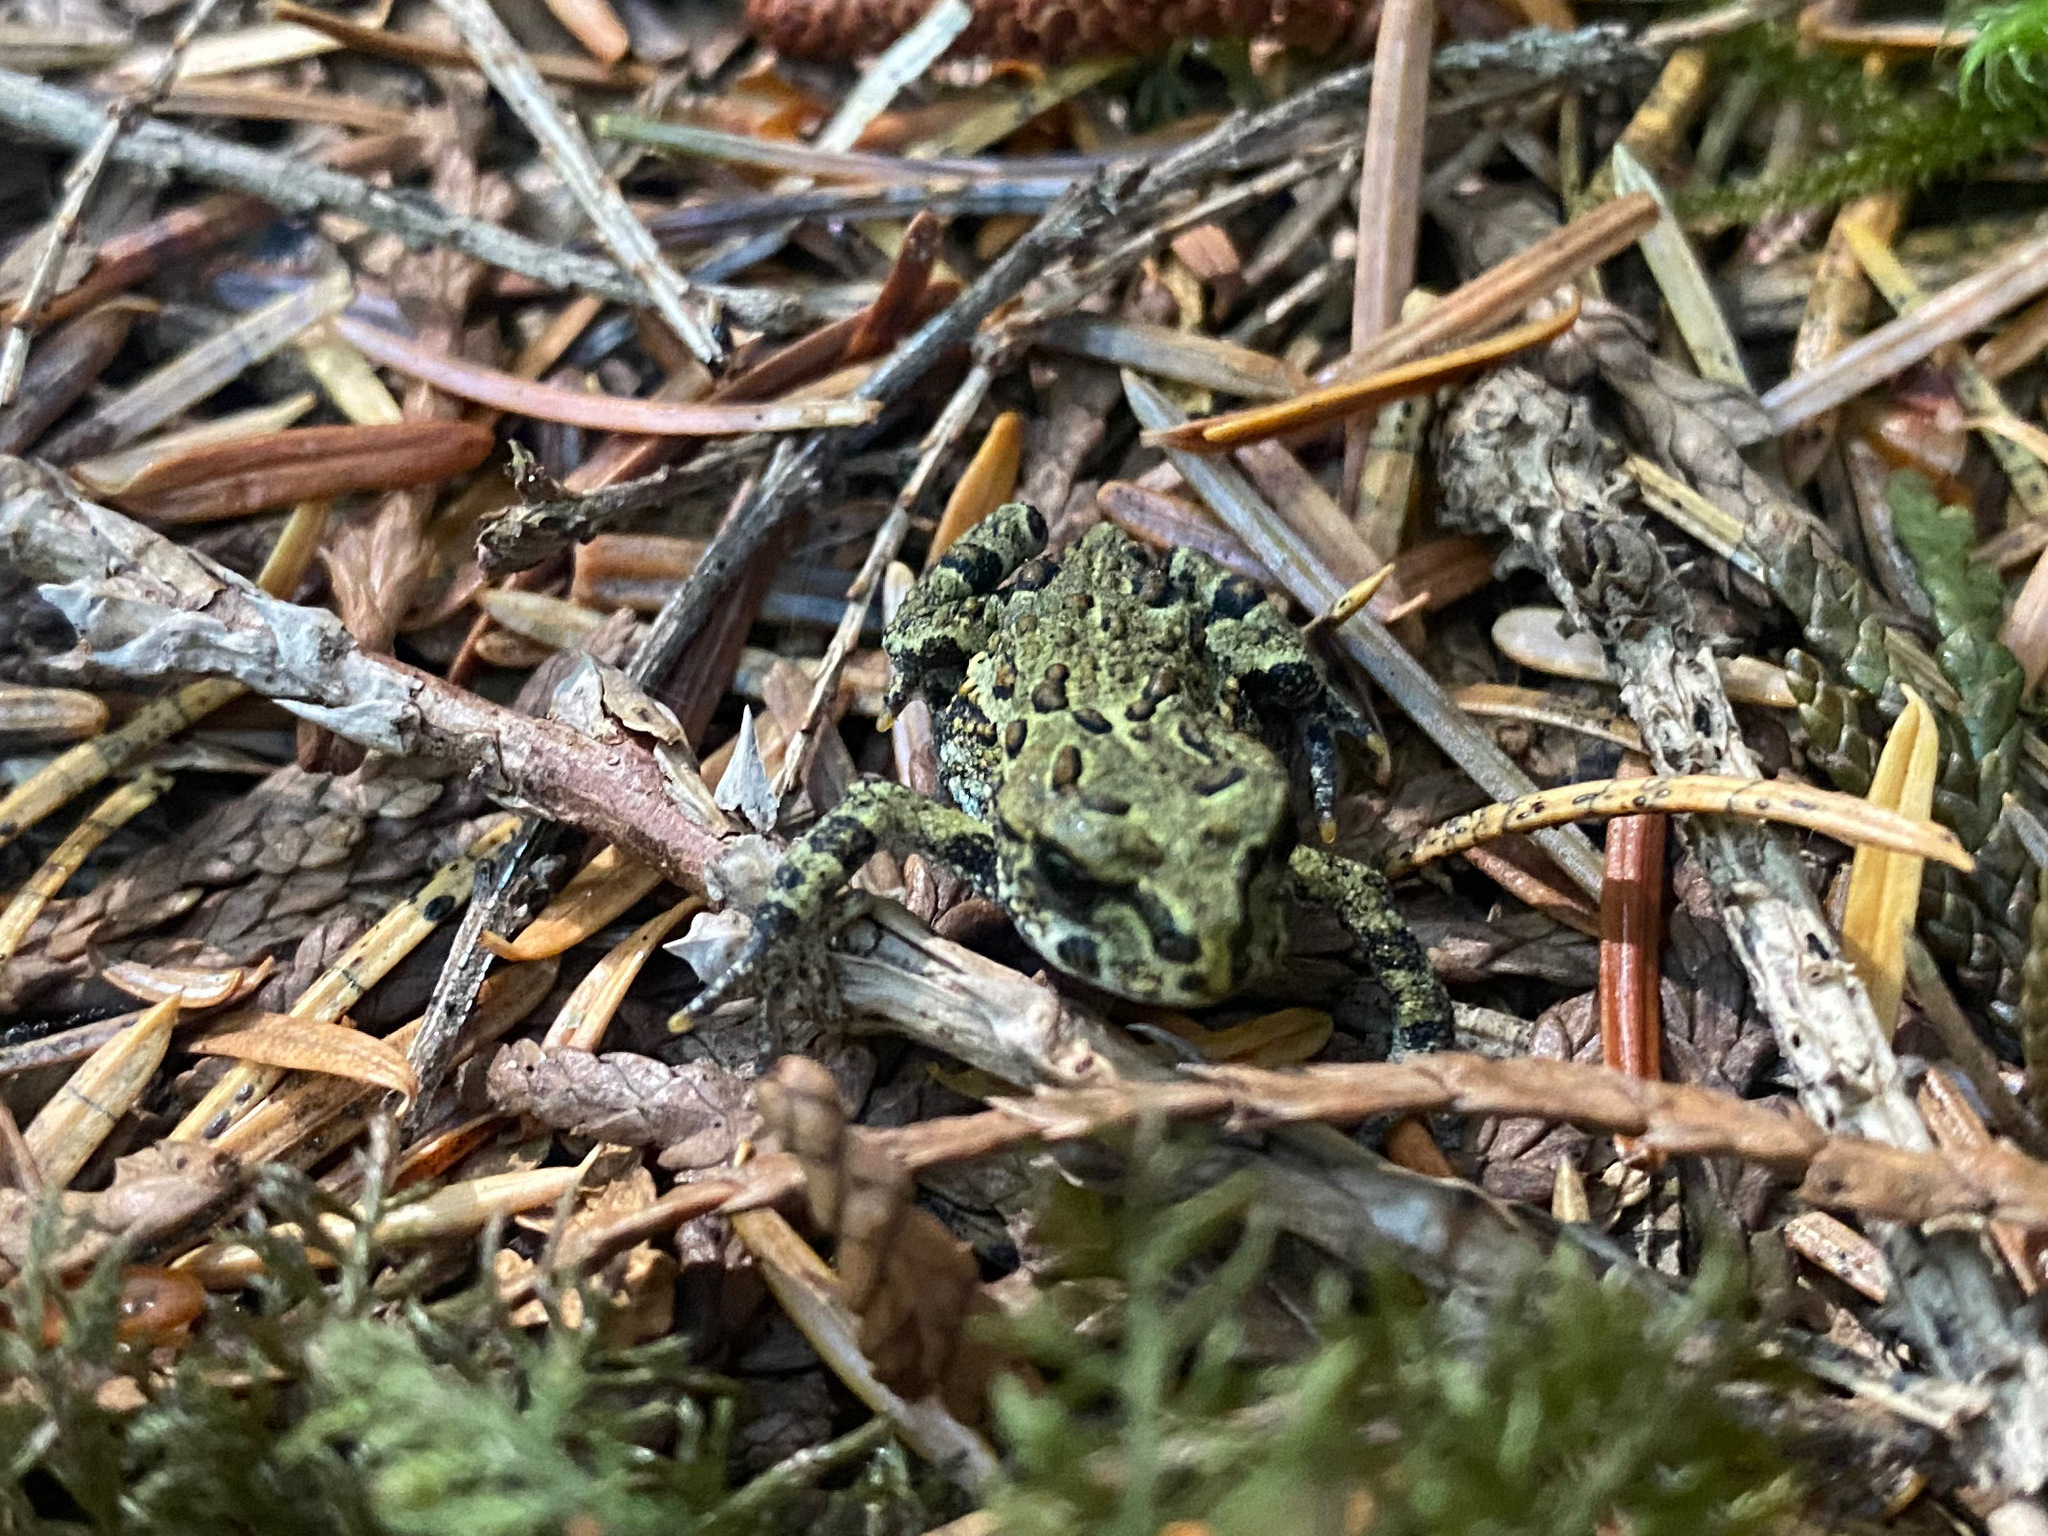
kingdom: Animalia
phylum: Chordata
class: Amphibia
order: Anura
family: Bufonidae
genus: Anaxyrus
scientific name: Anaxyrus boreas
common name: Western toad
